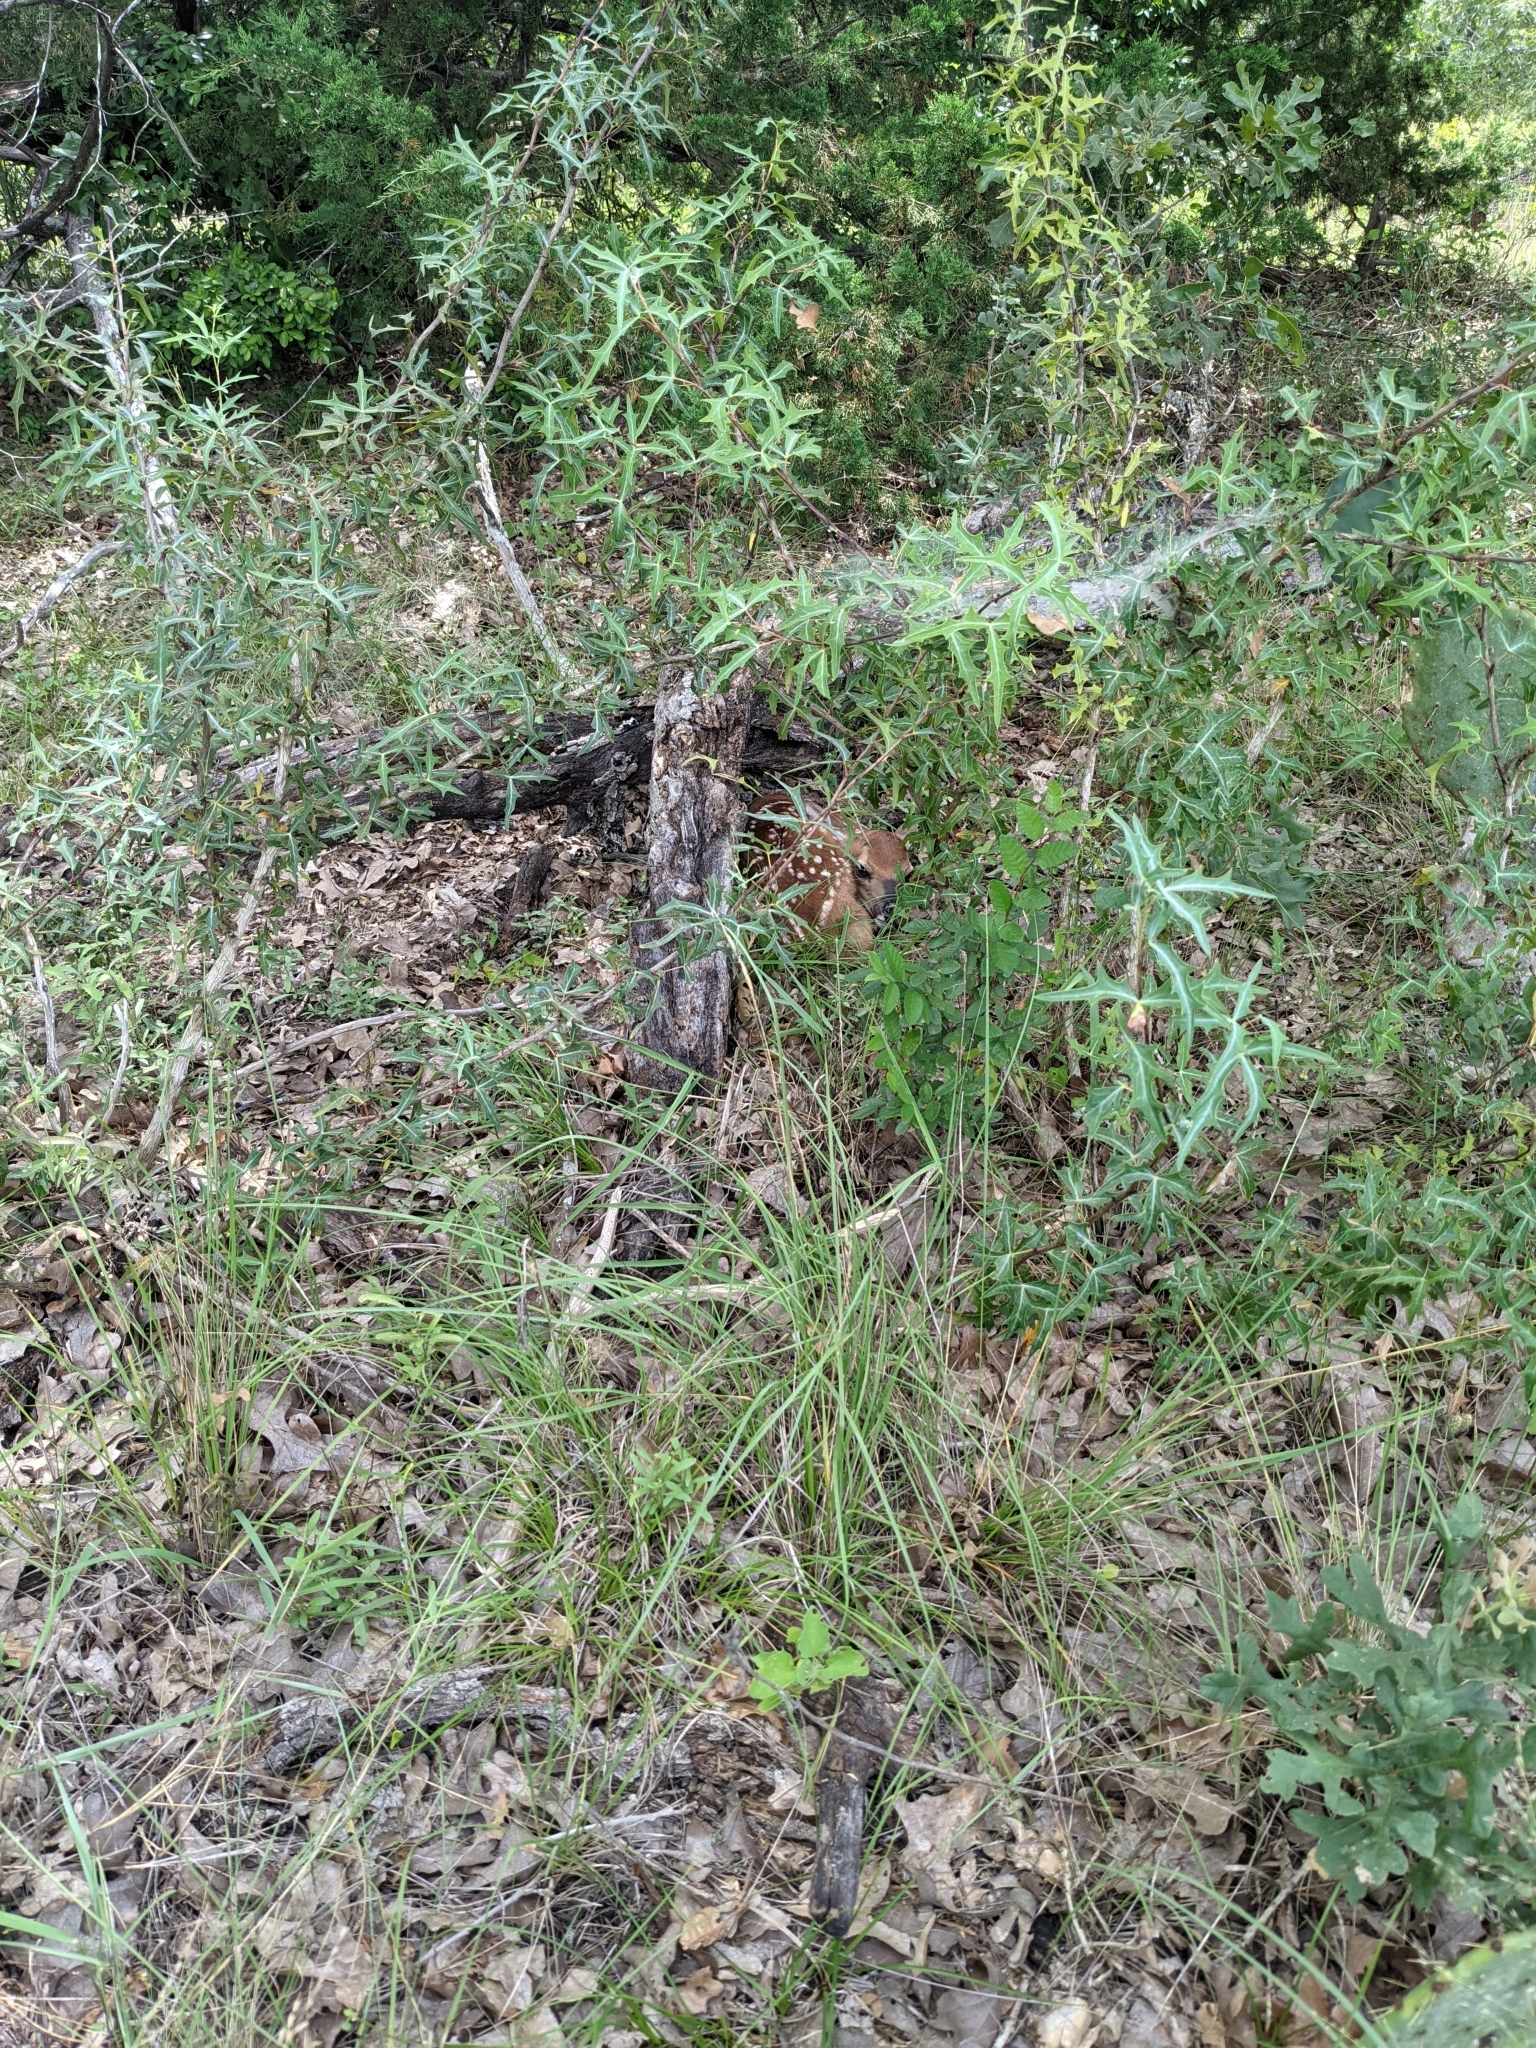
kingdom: Animalia
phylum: Chordata
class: Mammalia
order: Artiodactyla
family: Cervidae
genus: Odocoileus
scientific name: Odocoileus virginianus
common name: White-tailed deer
